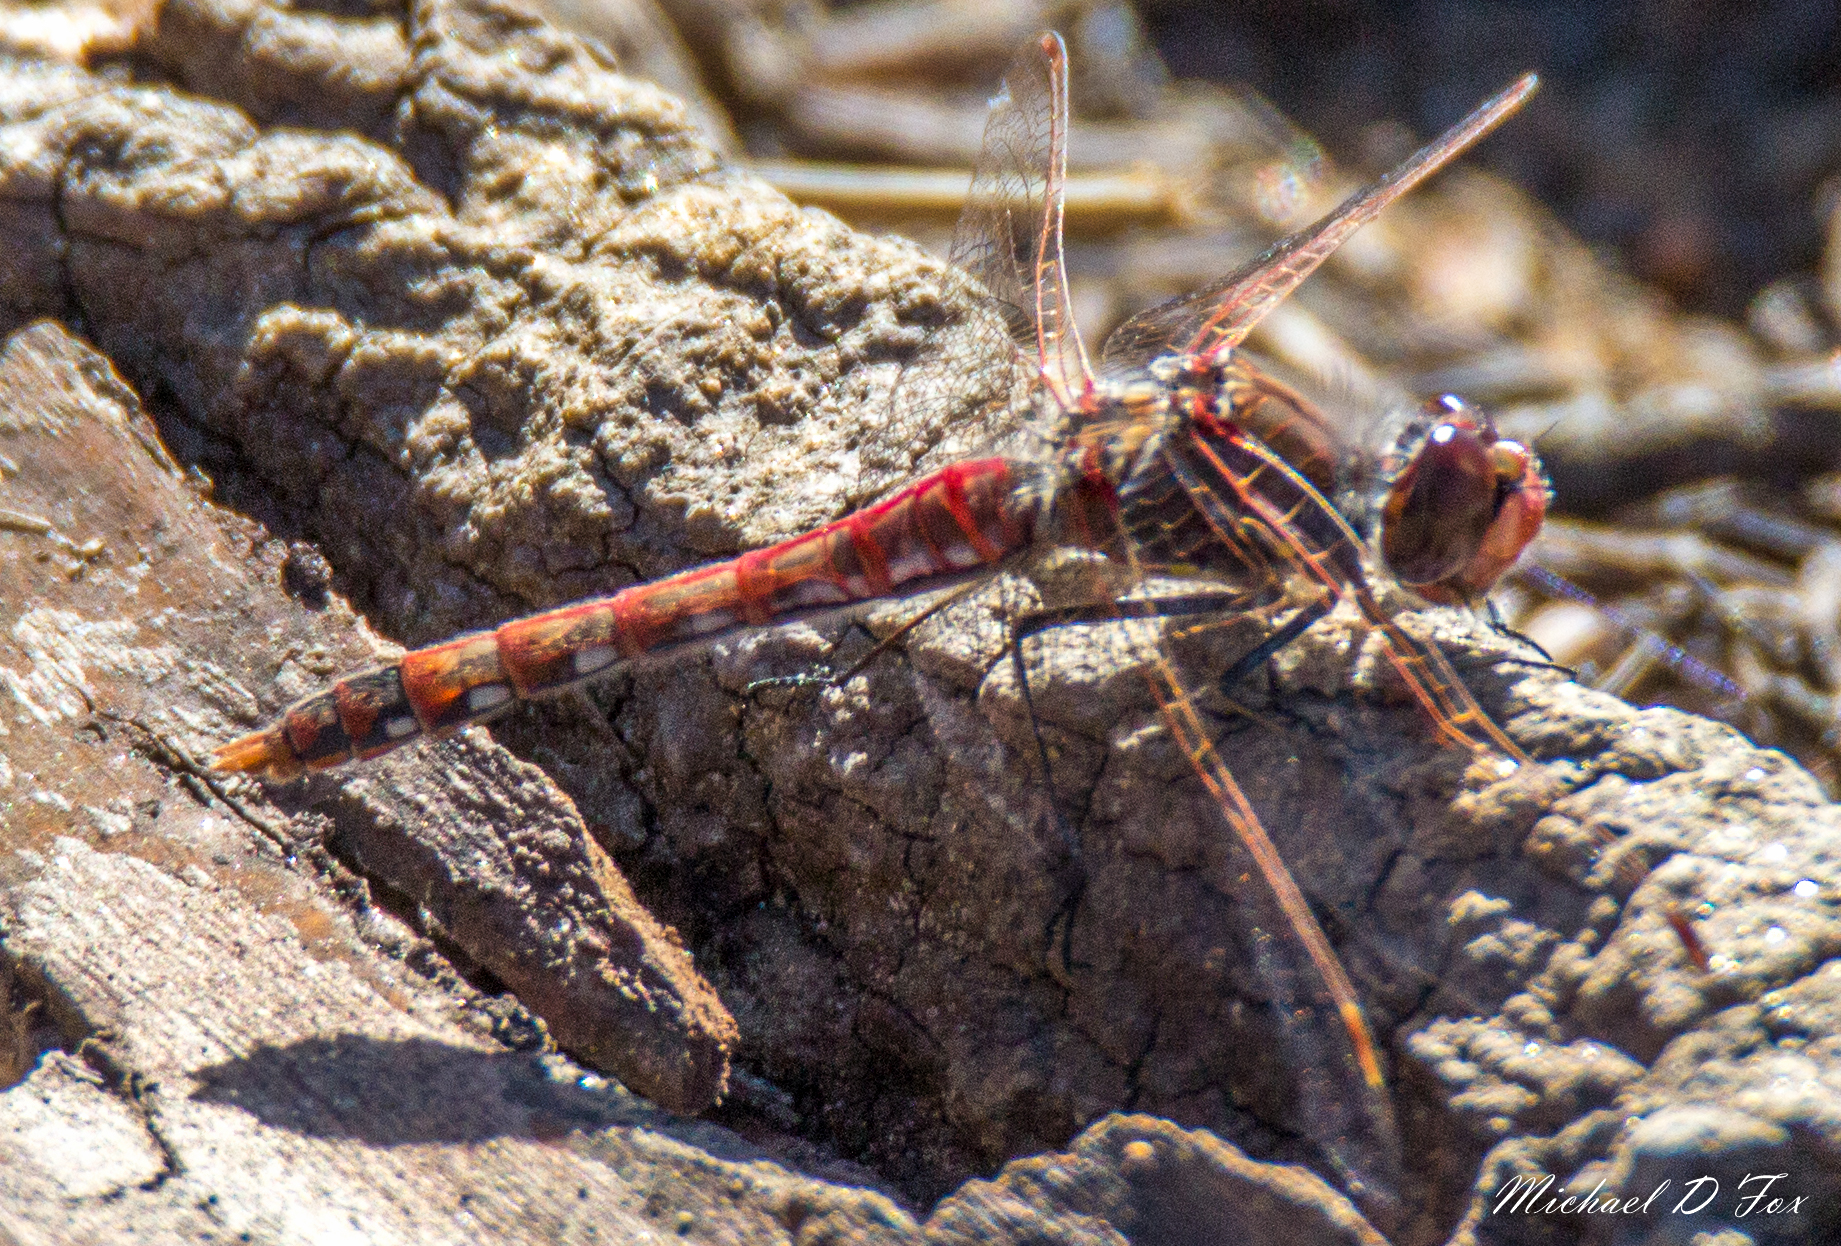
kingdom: Animalia
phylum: Arthropoda
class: Insecta
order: Odonata
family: Libellulidae
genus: Sympetrum
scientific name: Sympetrum corruptum
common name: Variegated meadowhawk
